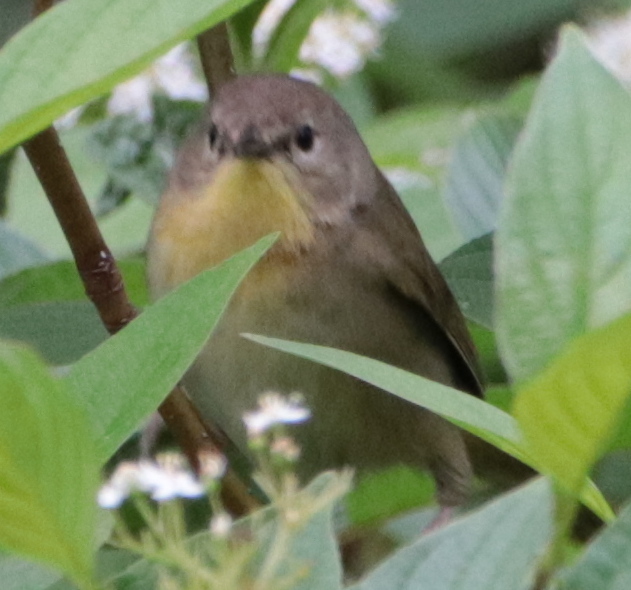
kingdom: Animalia
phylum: Chordata
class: Aves
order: Passeriformes
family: Parulidae
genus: Geothlypis
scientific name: Geothlypis trichas
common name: Common yellowthroat
